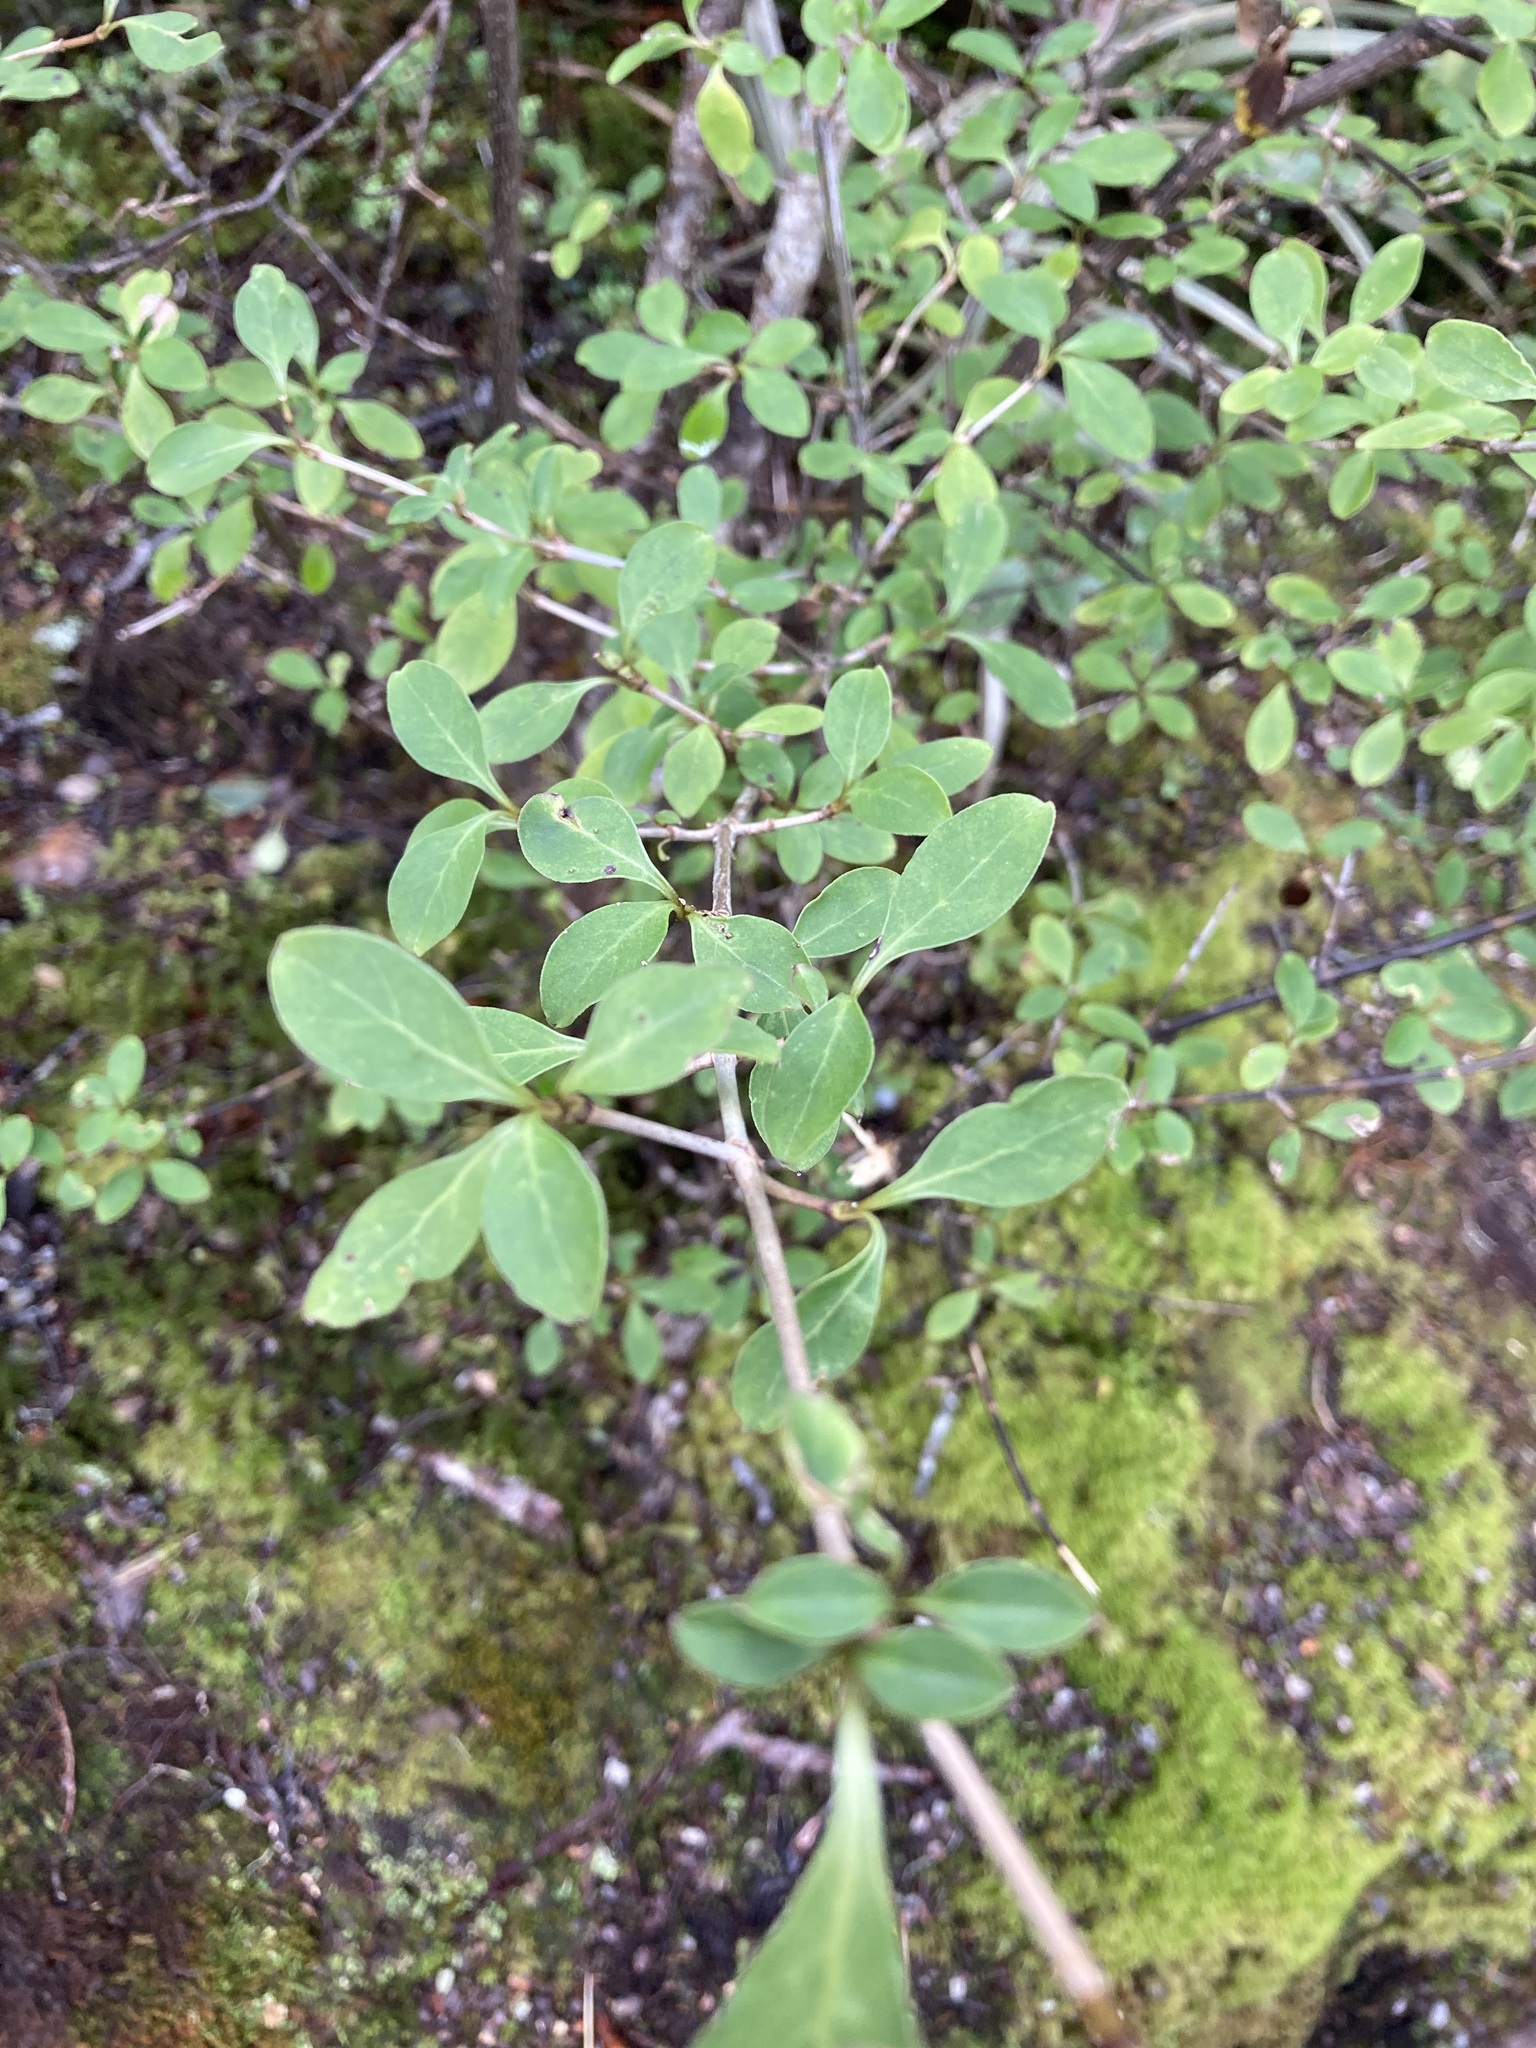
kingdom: Plantae
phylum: Tracheophyta
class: Magnoliopsida
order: Gentianales
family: Rubiaceae
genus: Coprosma
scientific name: Coprosma foetidissima
